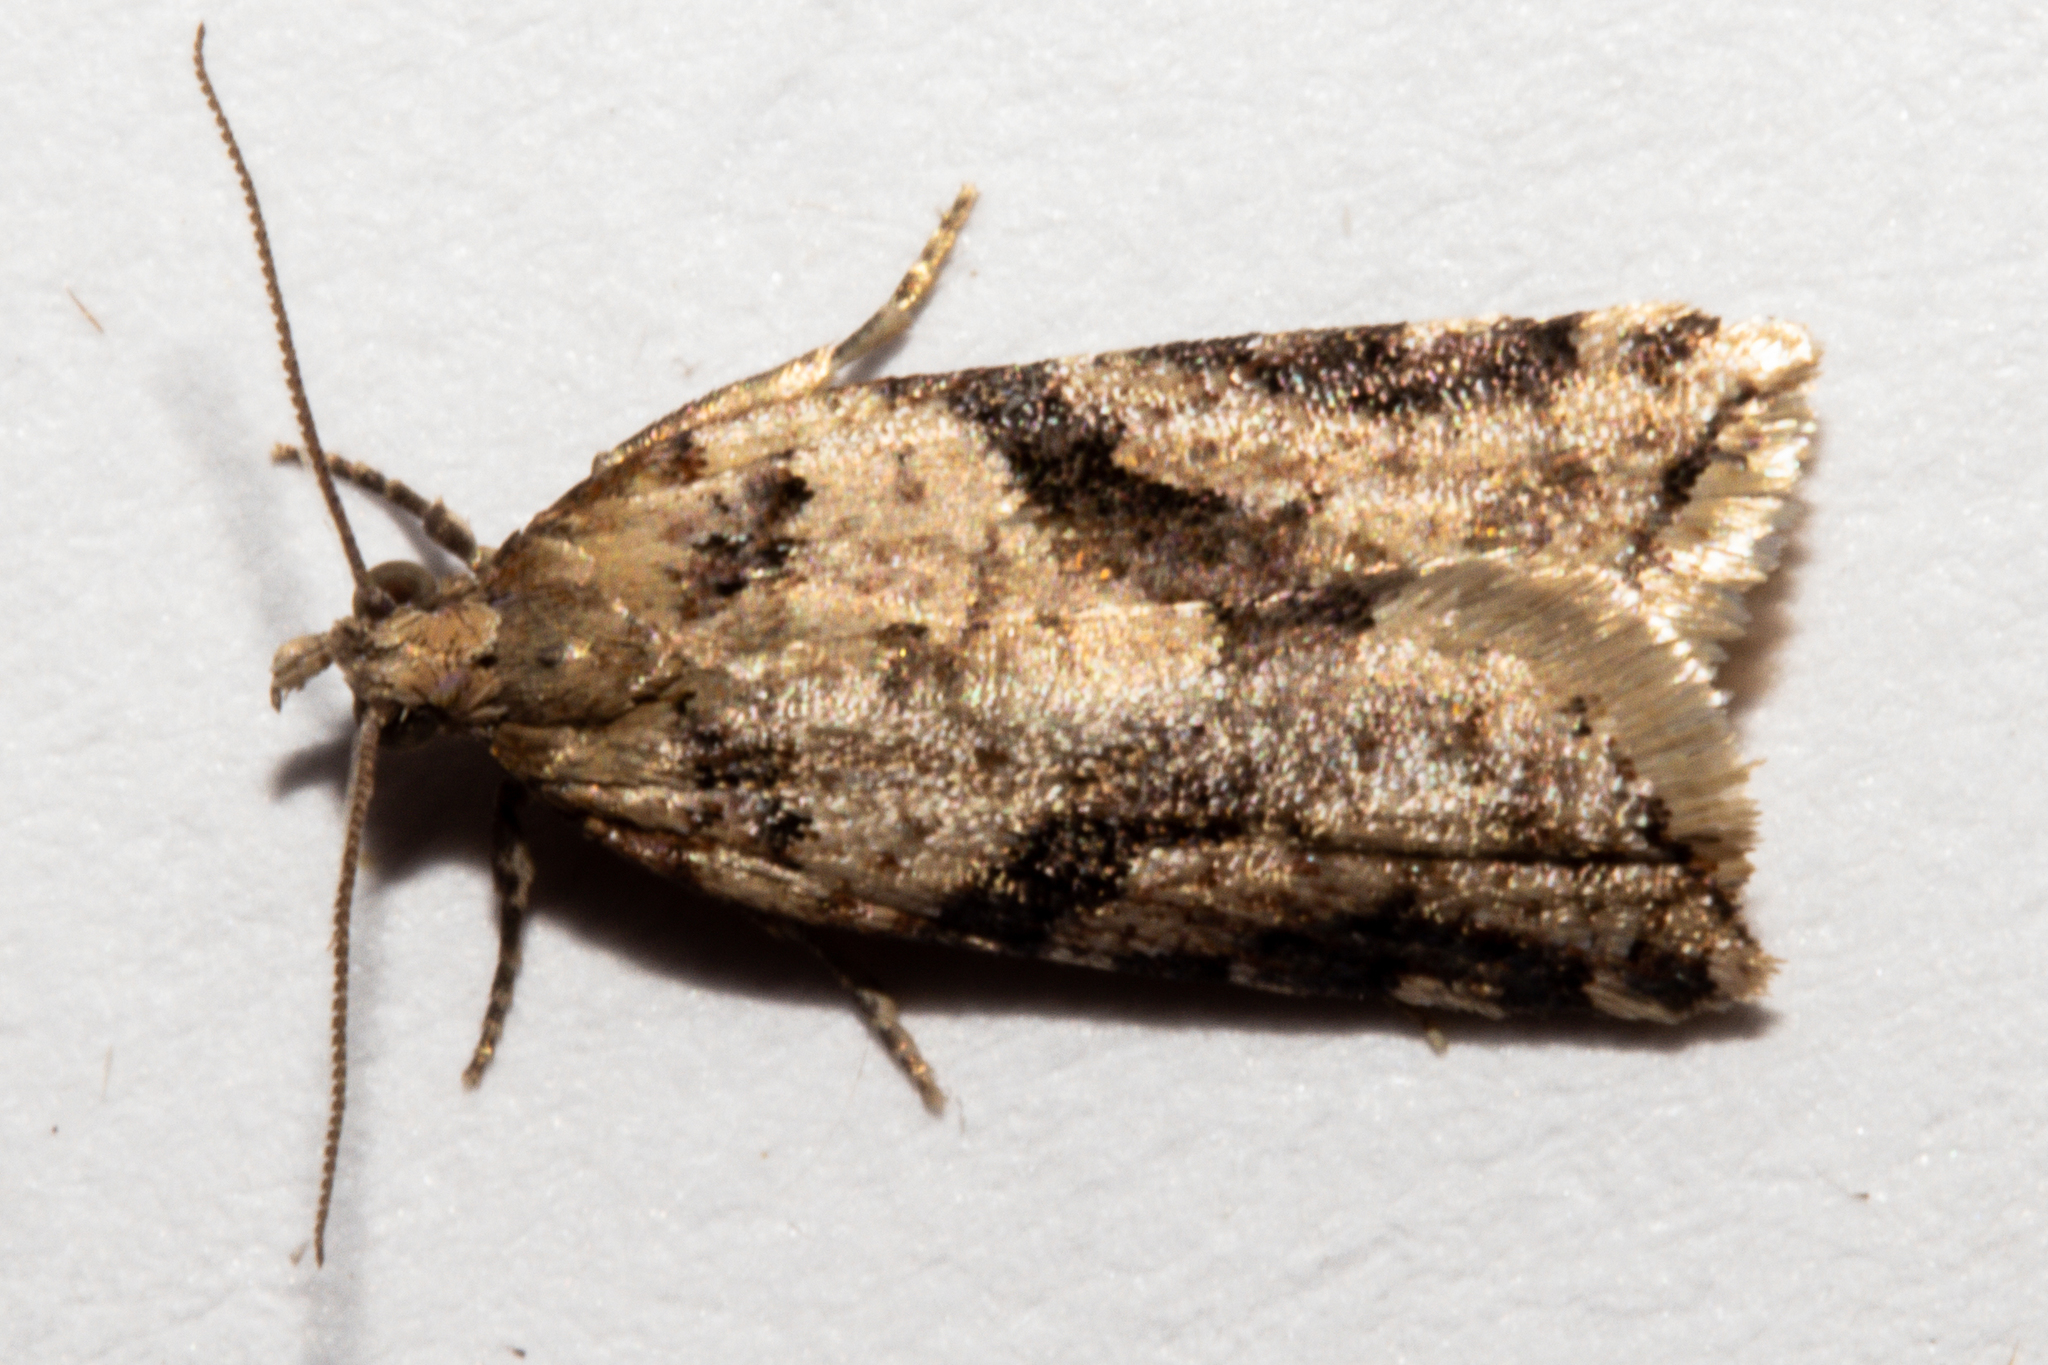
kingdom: Animalia
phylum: Arthropoda
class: Insecta
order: Lepidoptera
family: Tortricidae
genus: Capua
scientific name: Capua semiferana
